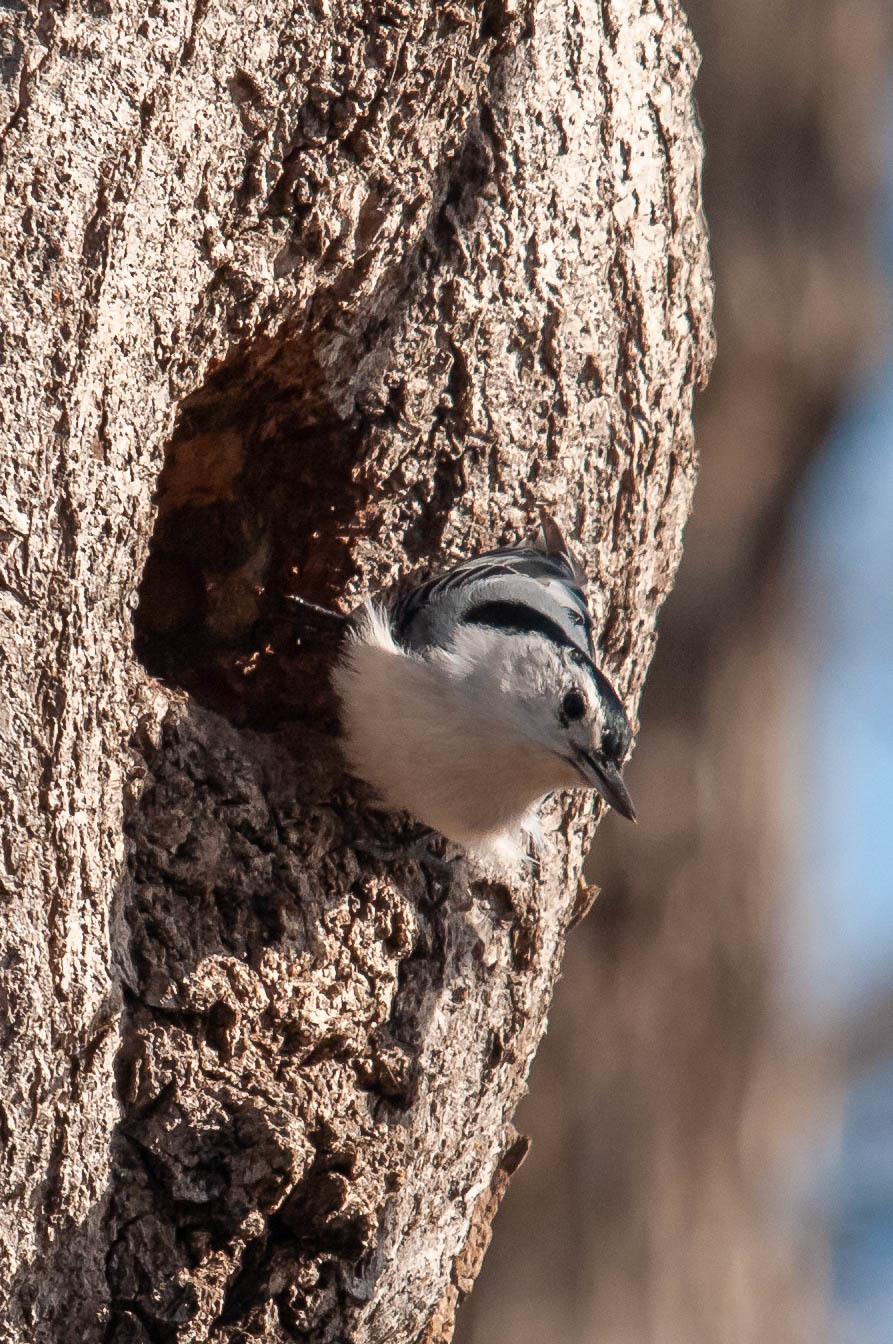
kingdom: Animalia
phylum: Chordata
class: Aves
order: Passeriformes
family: Sittidae
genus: Sitta
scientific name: Sitta carolinensis
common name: White-breasted nuthatch
